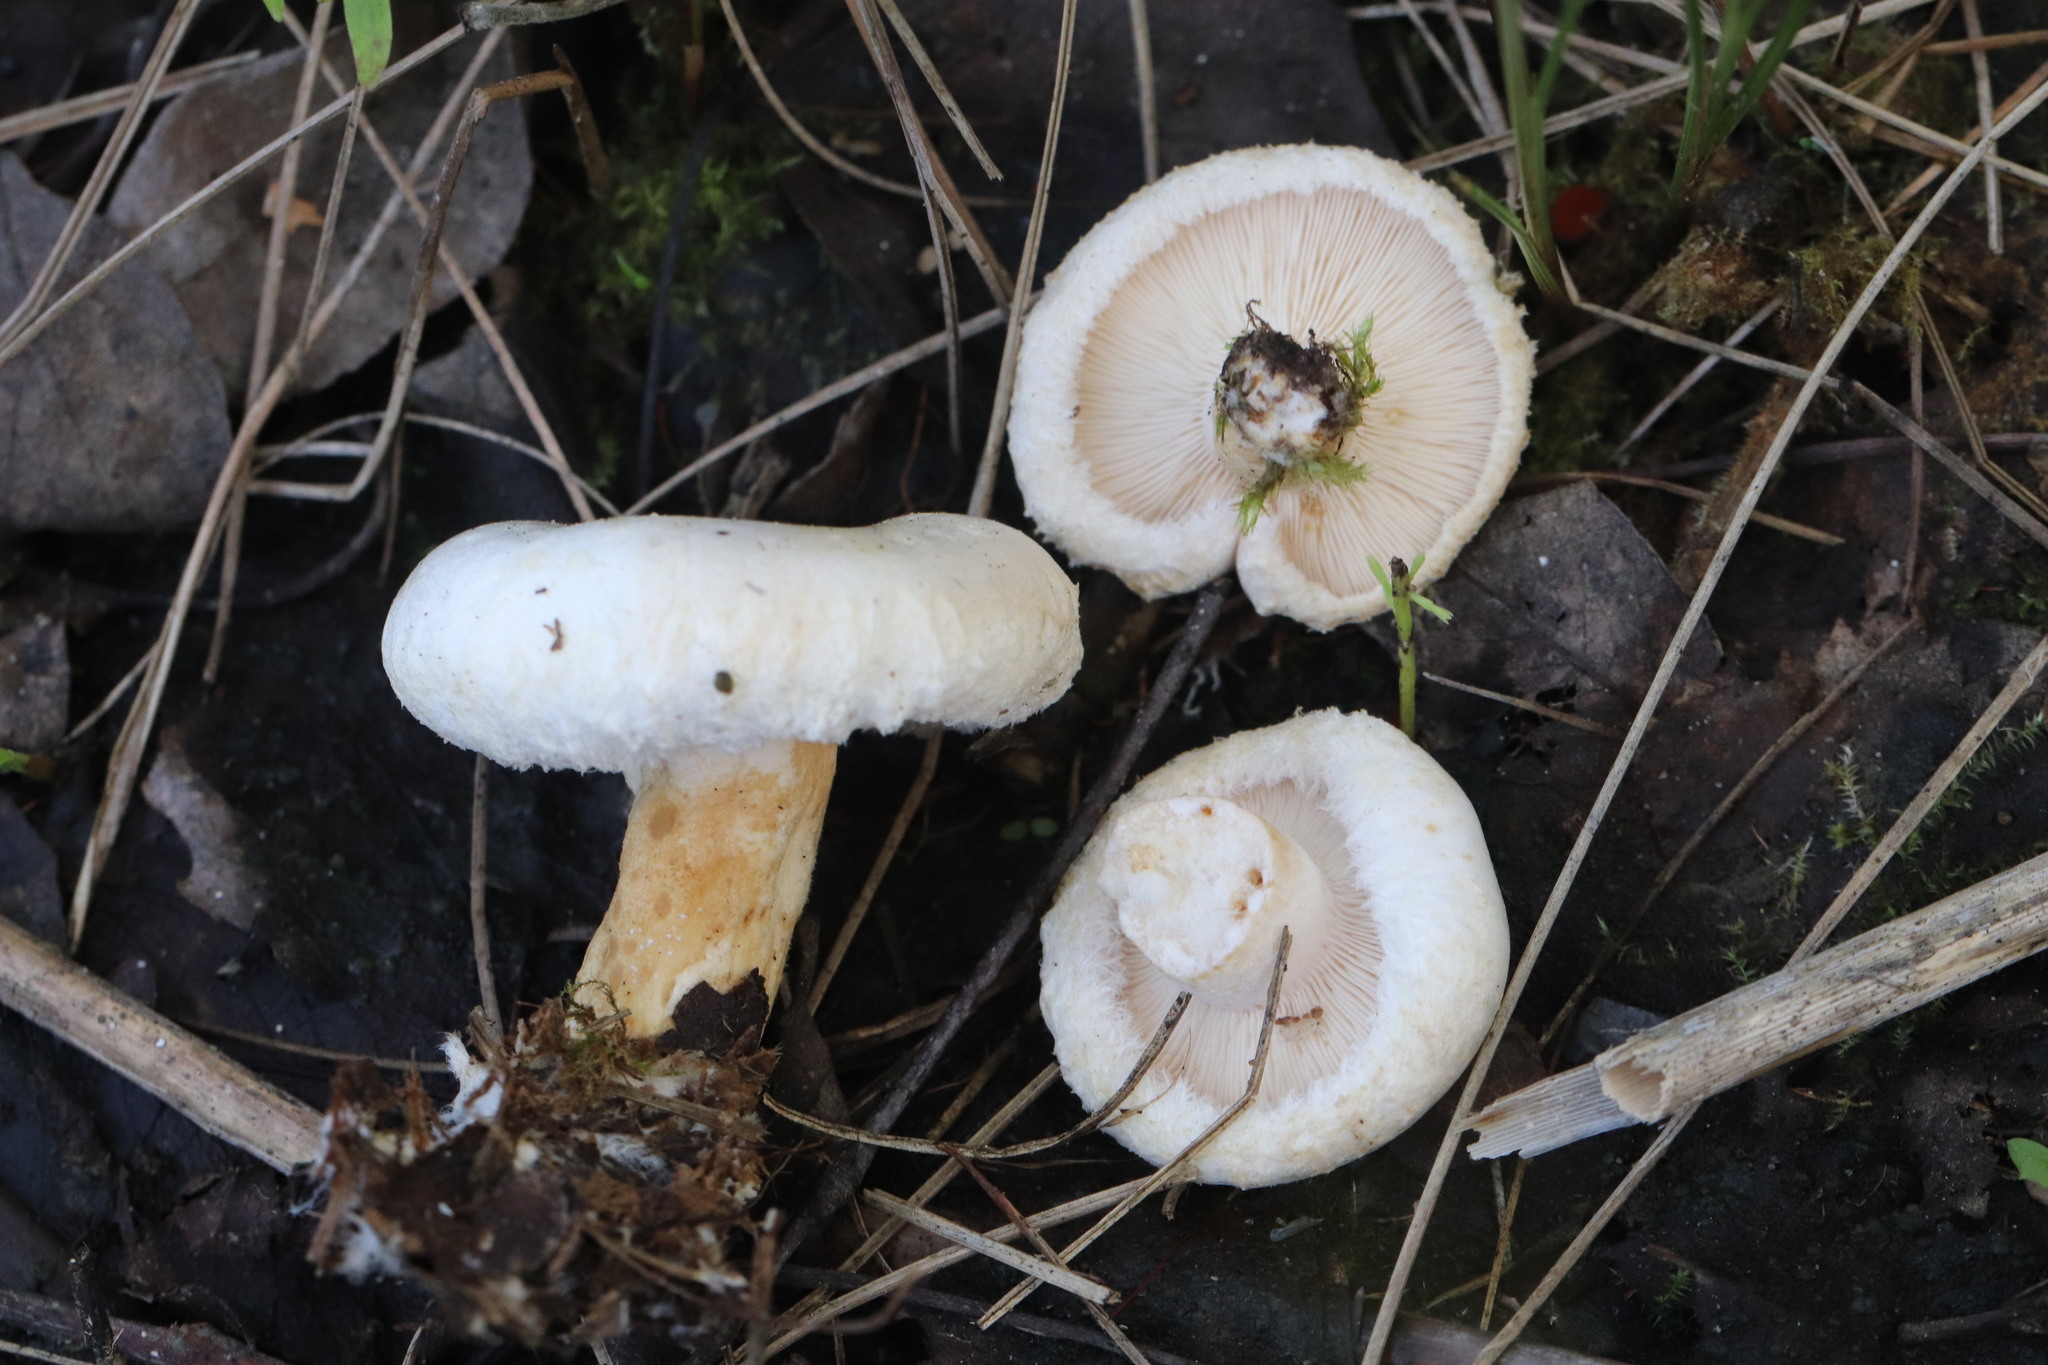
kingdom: Fungi
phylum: Basidiomycota
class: Agaricomycetes
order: Russulales
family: Russulaceae
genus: Lactarius
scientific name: Lactarius pubescens
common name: Bearded milkcap
